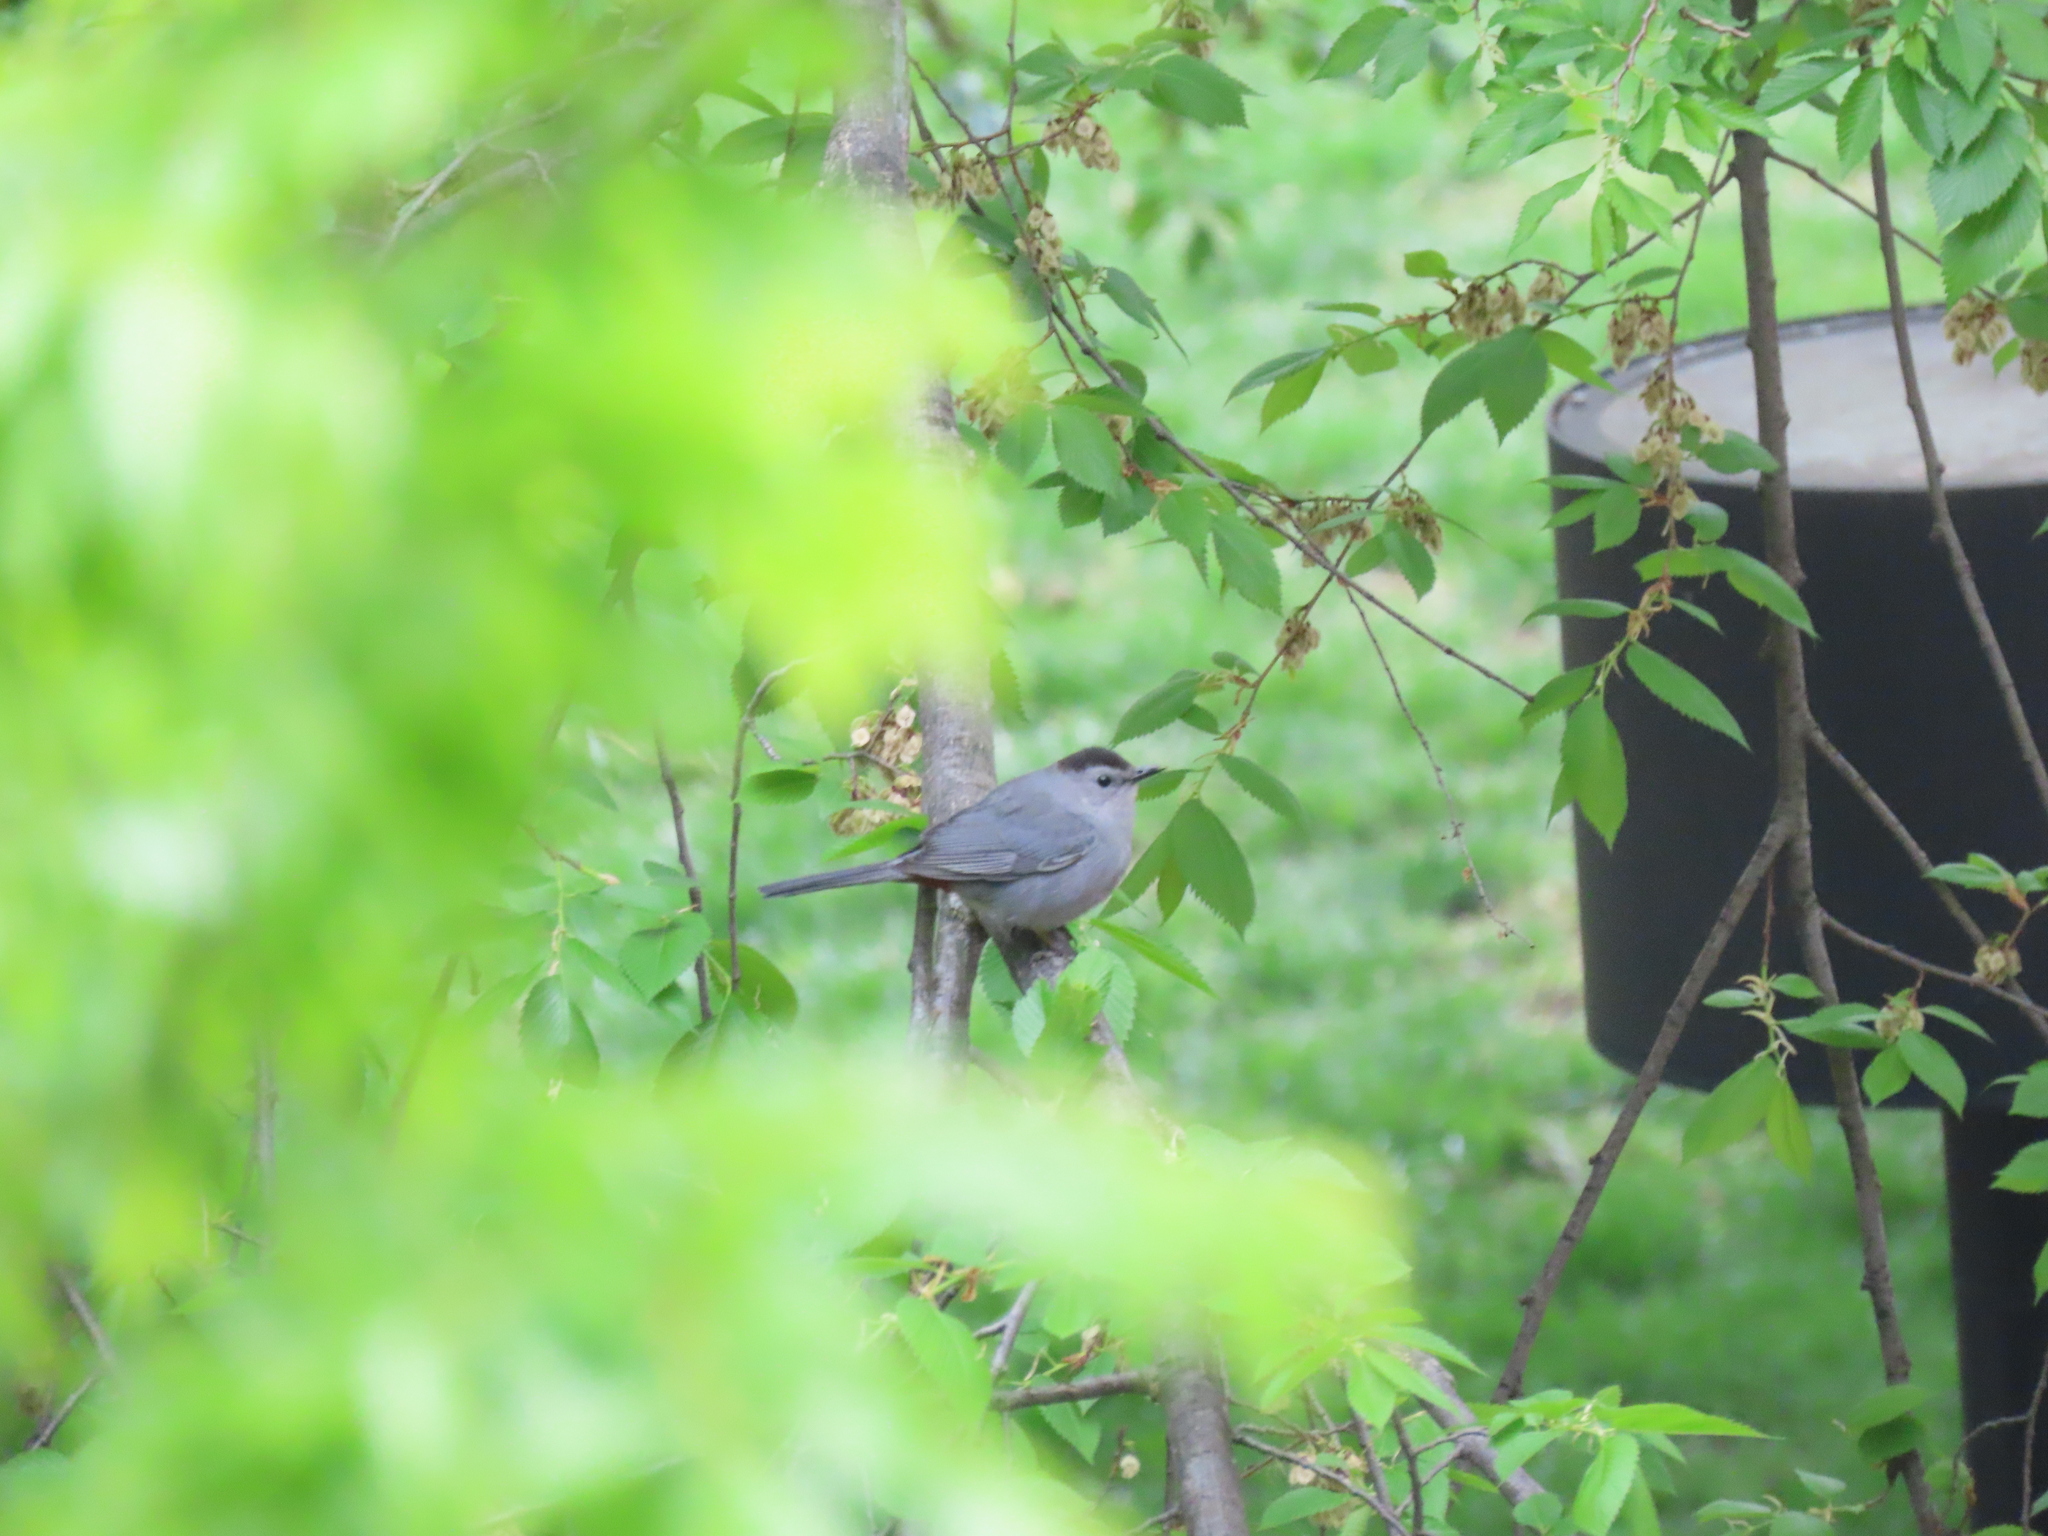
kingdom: Animalia
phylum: Chordata
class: Aves
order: Passeriformes
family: Mimidae
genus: Dumetella
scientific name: Dumetella carolinensis
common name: Gray catbird
